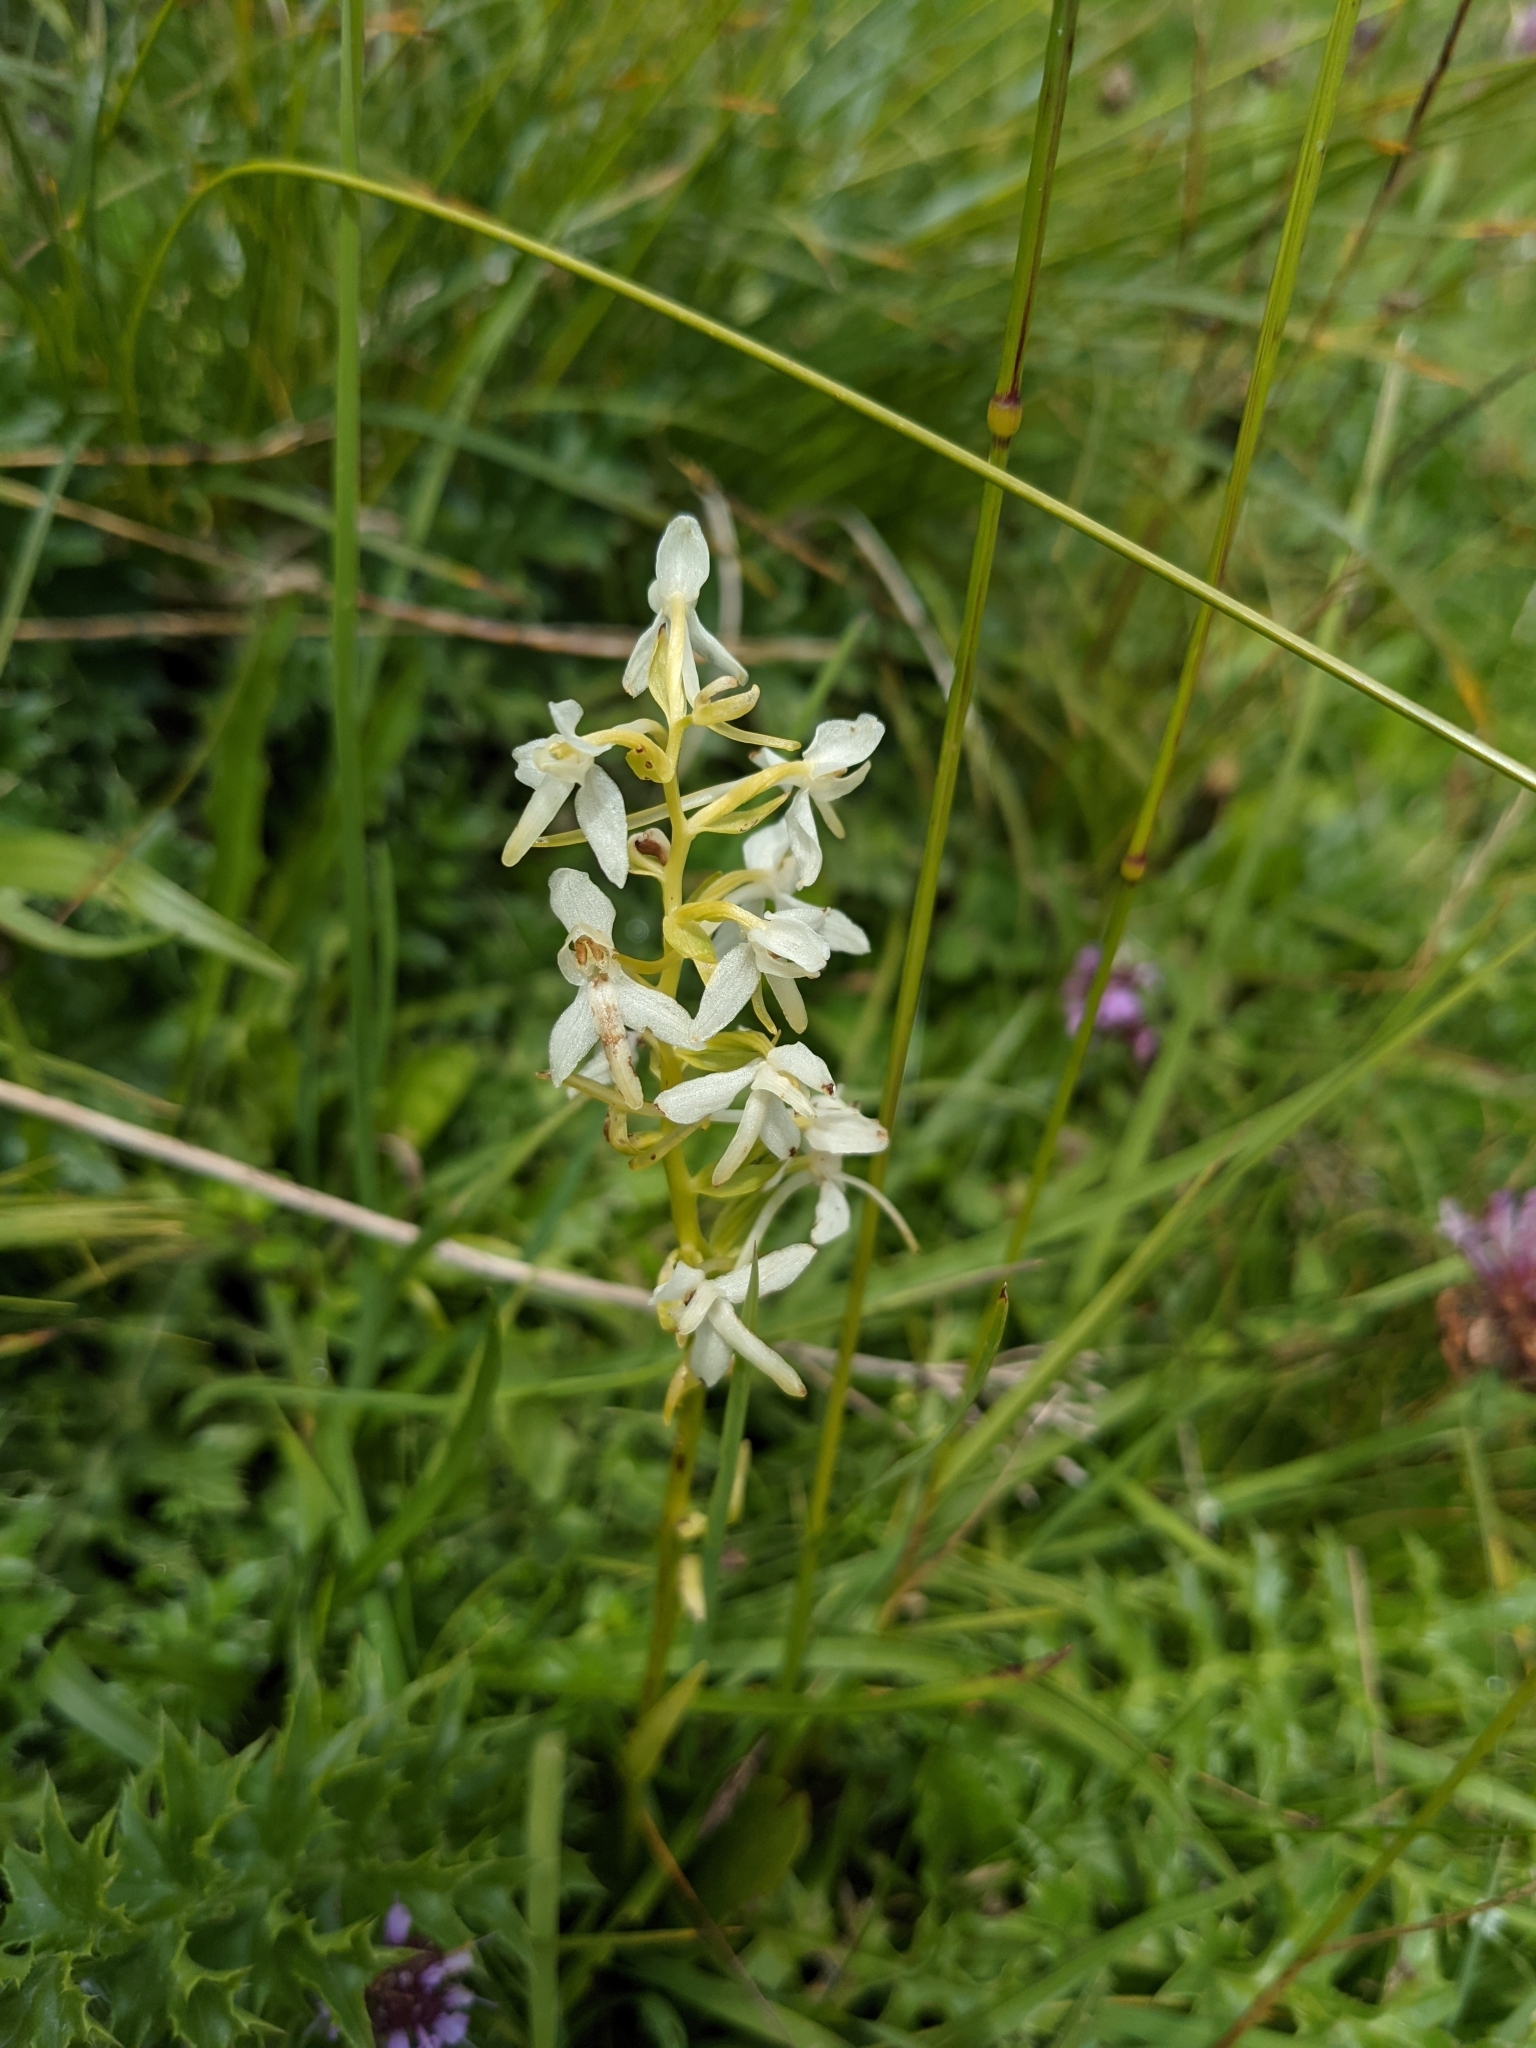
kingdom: Plantae
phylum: Tracheophyta
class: Liliopsida
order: Asparagales
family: Orchidaceae
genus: Platanthera
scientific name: Platanthera bifolia
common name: Lesser butterfly-orchid
